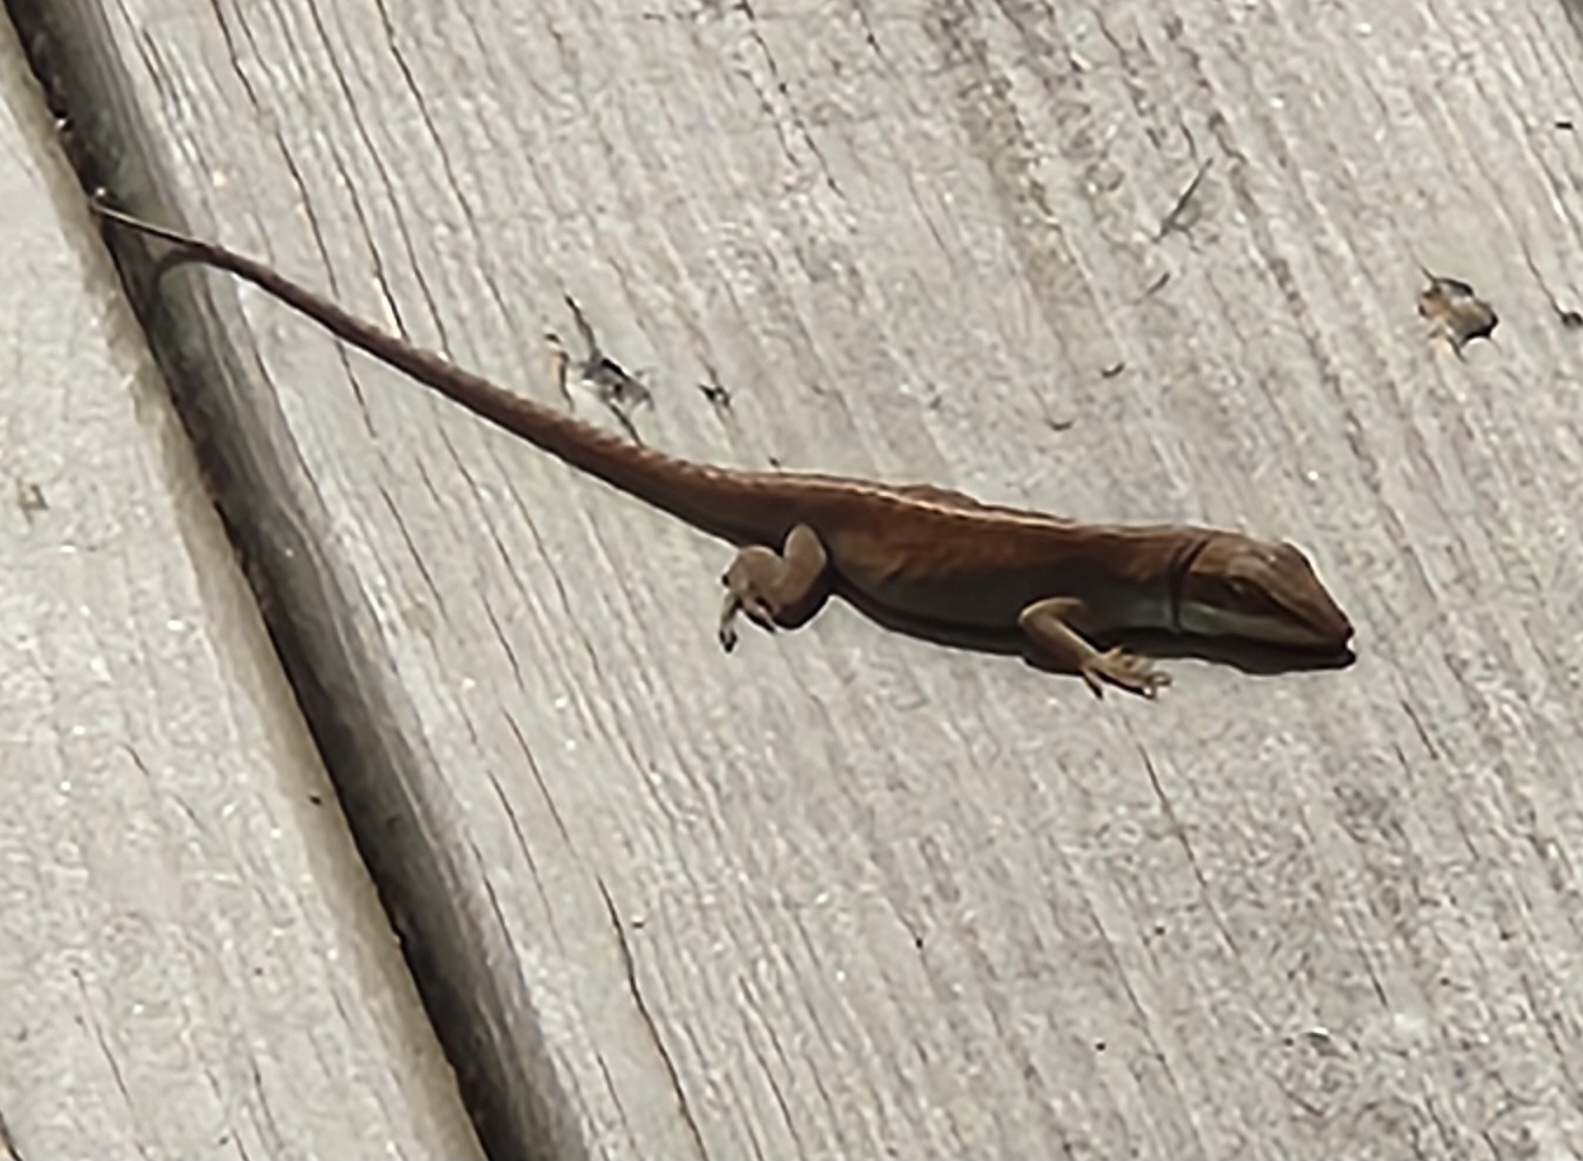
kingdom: Animalia
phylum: Chordata
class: Squamata
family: Dactyloidae
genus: Anolis
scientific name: Anolis carolinensis
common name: Green anole
